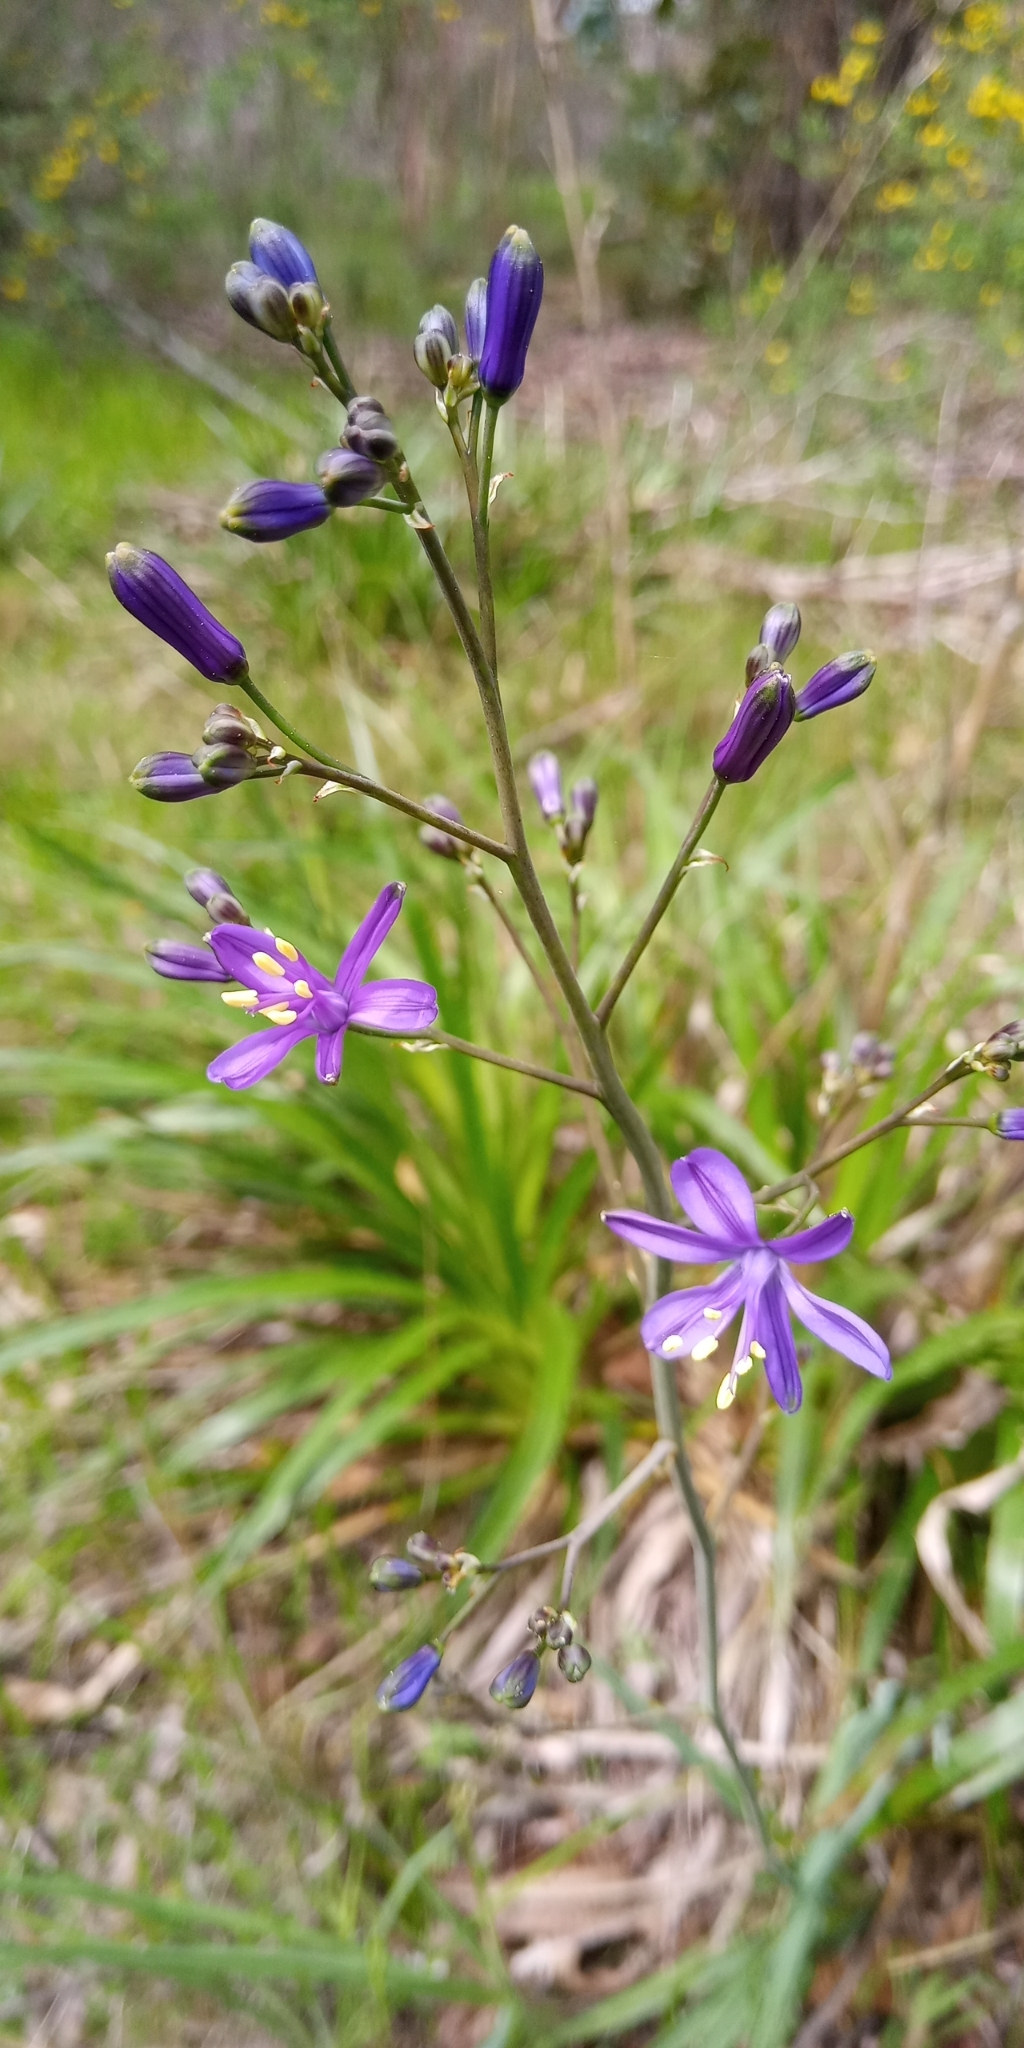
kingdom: Plantae
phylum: Tracheophyta
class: Liliopsida
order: Asparagales
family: Asphodelaceae
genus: Pasithea
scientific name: Pasithea caerulea
